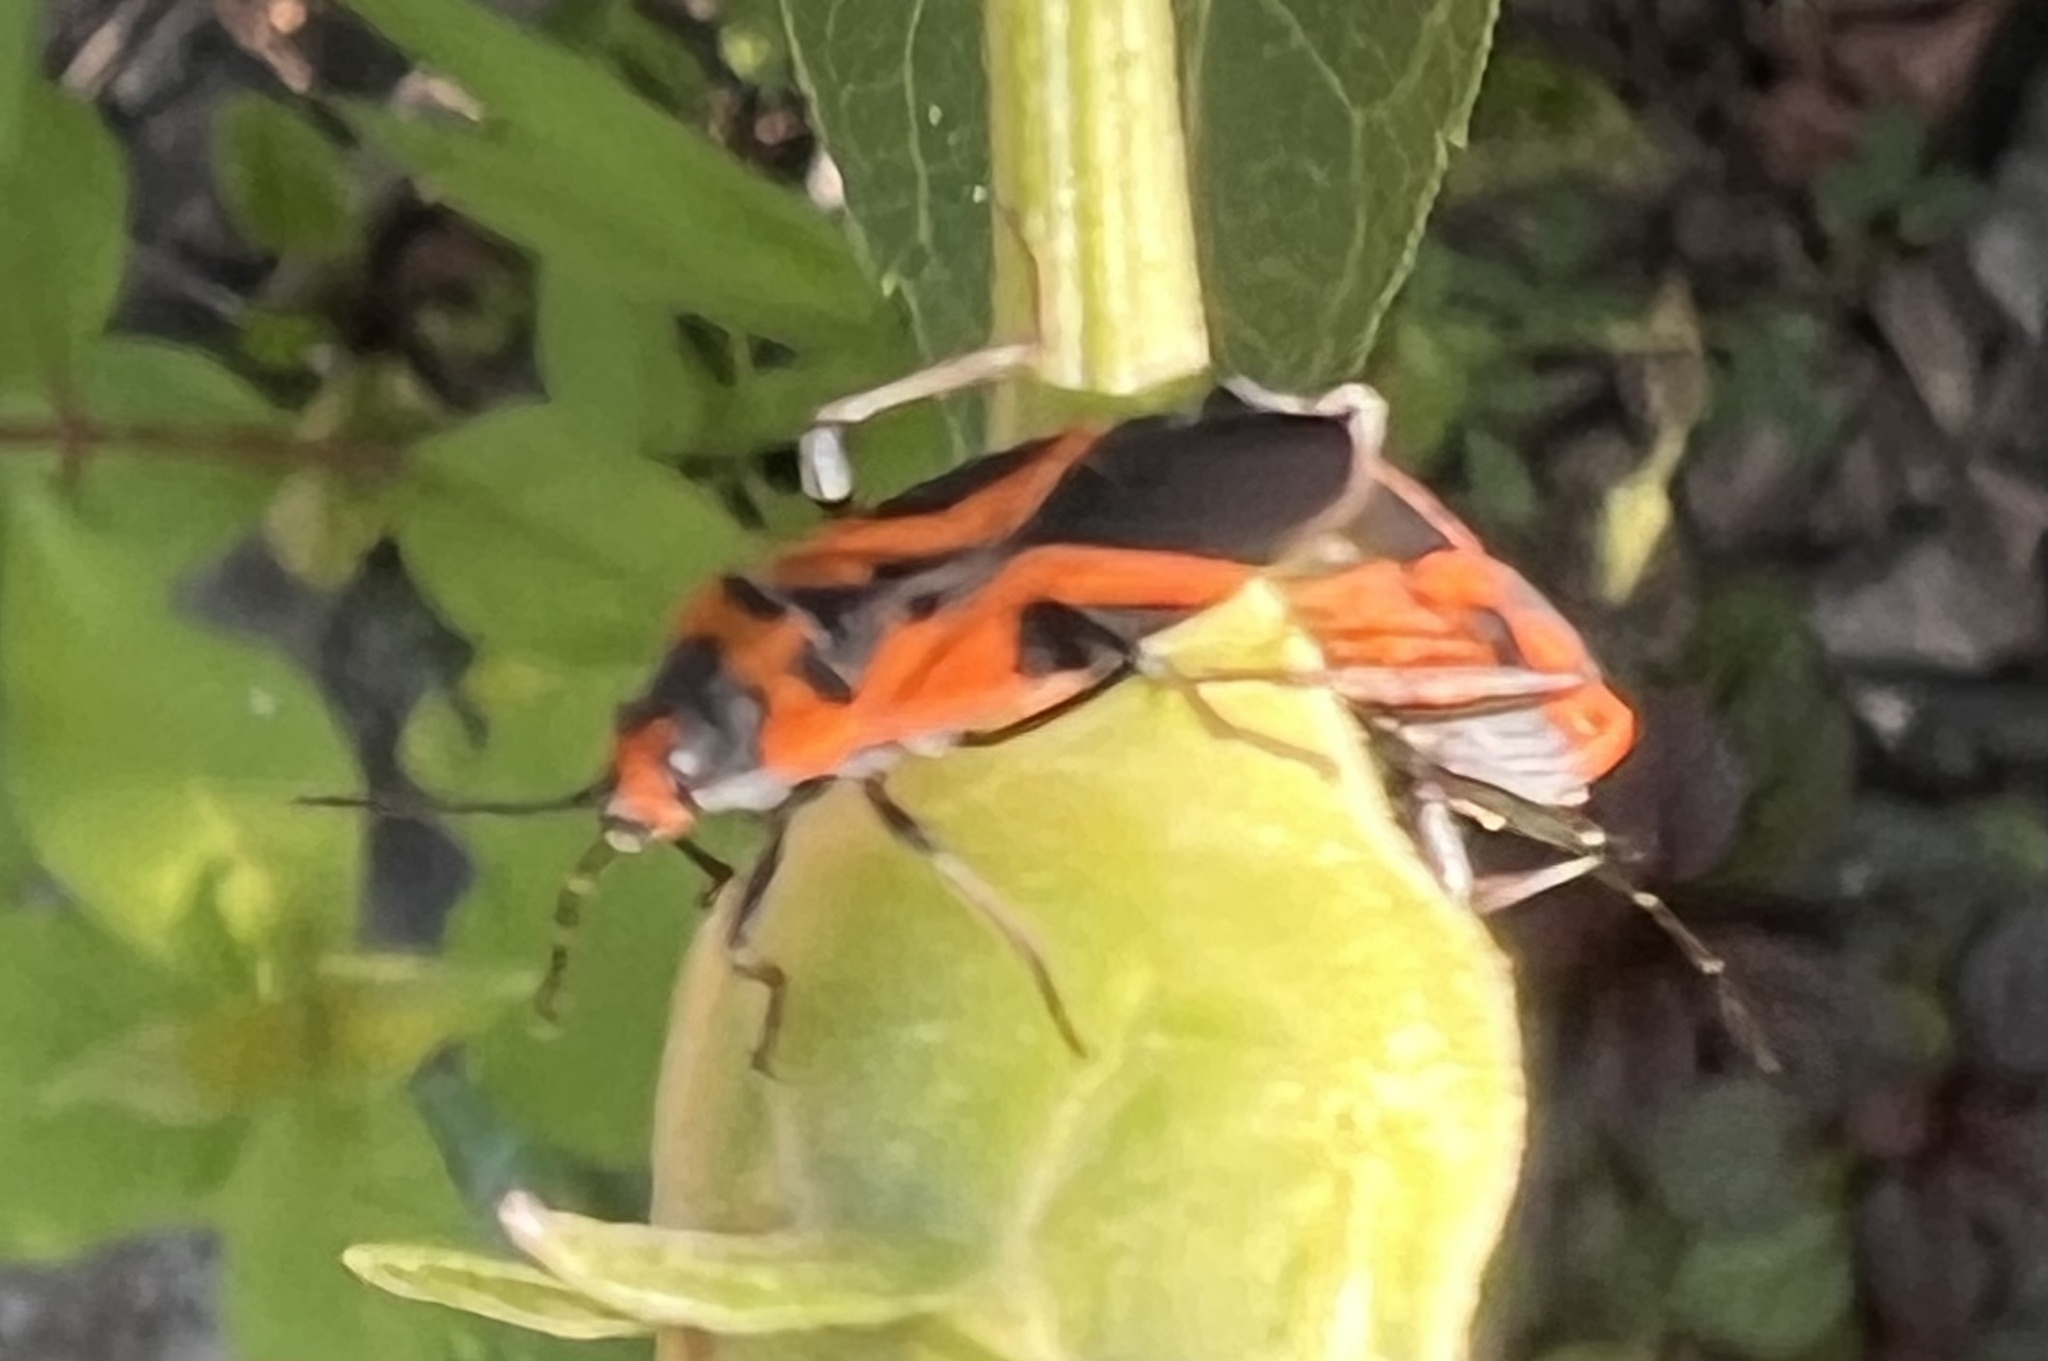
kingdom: Animalia
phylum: Arthropoda
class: Insecta
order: Hemiptera
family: Lygaeidae
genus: Lygaeus
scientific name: Lygaeus turcicus
